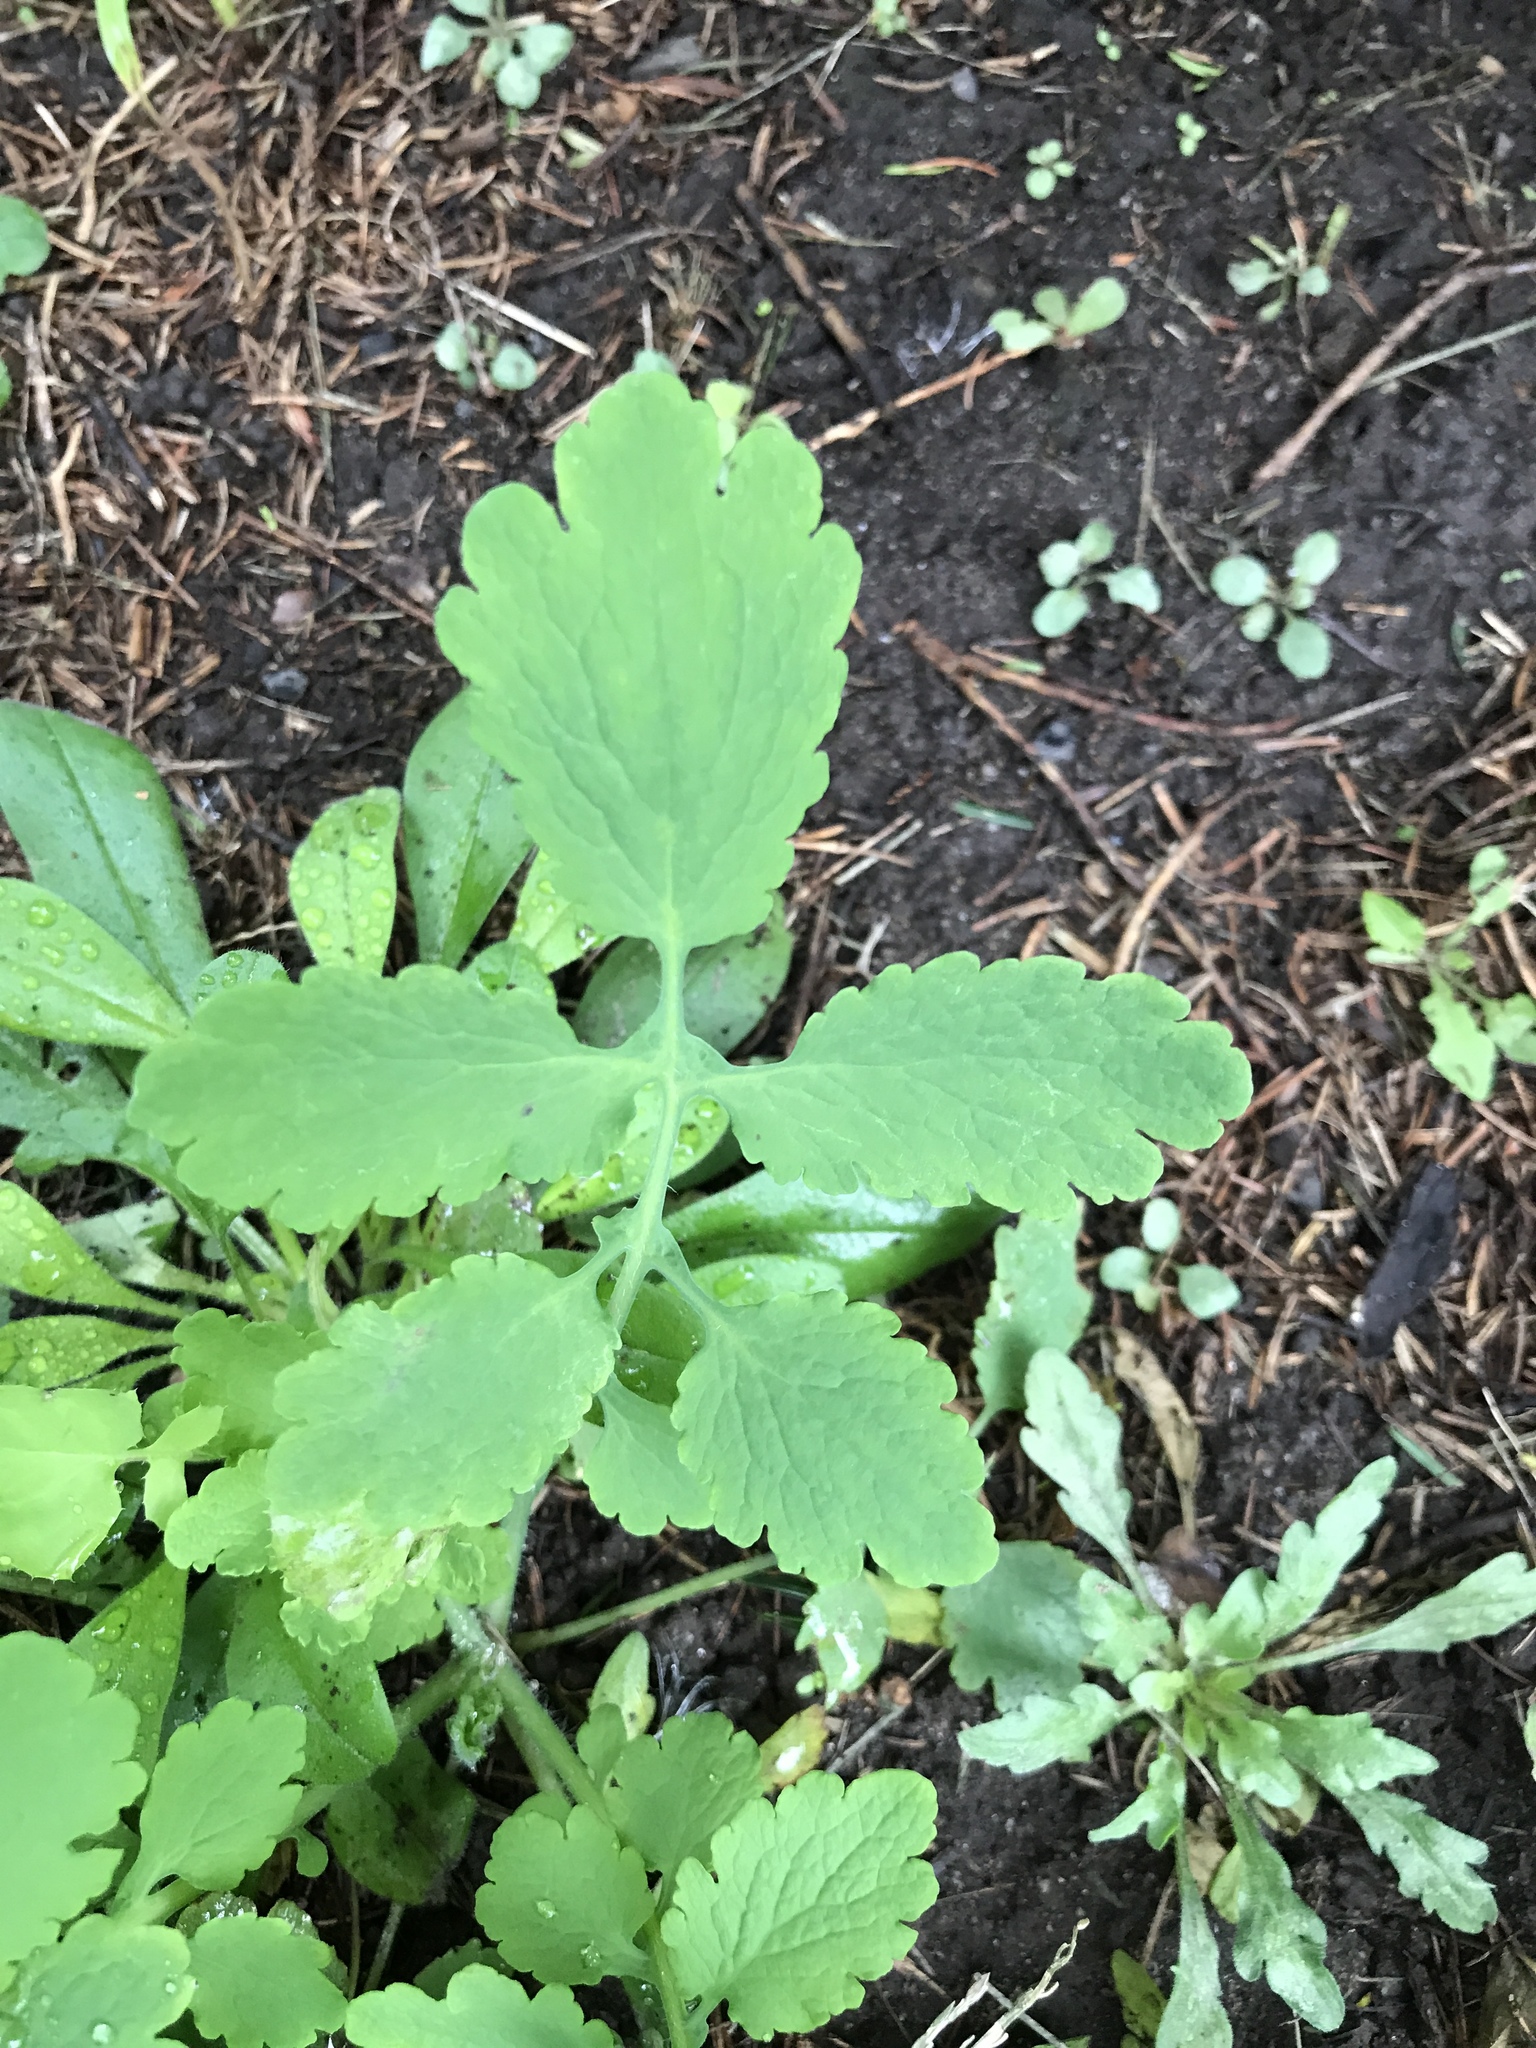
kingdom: Plantae
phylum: Tracheophyta
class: Magnoliopsida
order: Ranunculales
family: Papaveraceae
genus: Chelidonium
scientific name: Chelidonium majus
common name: Greater celandine
